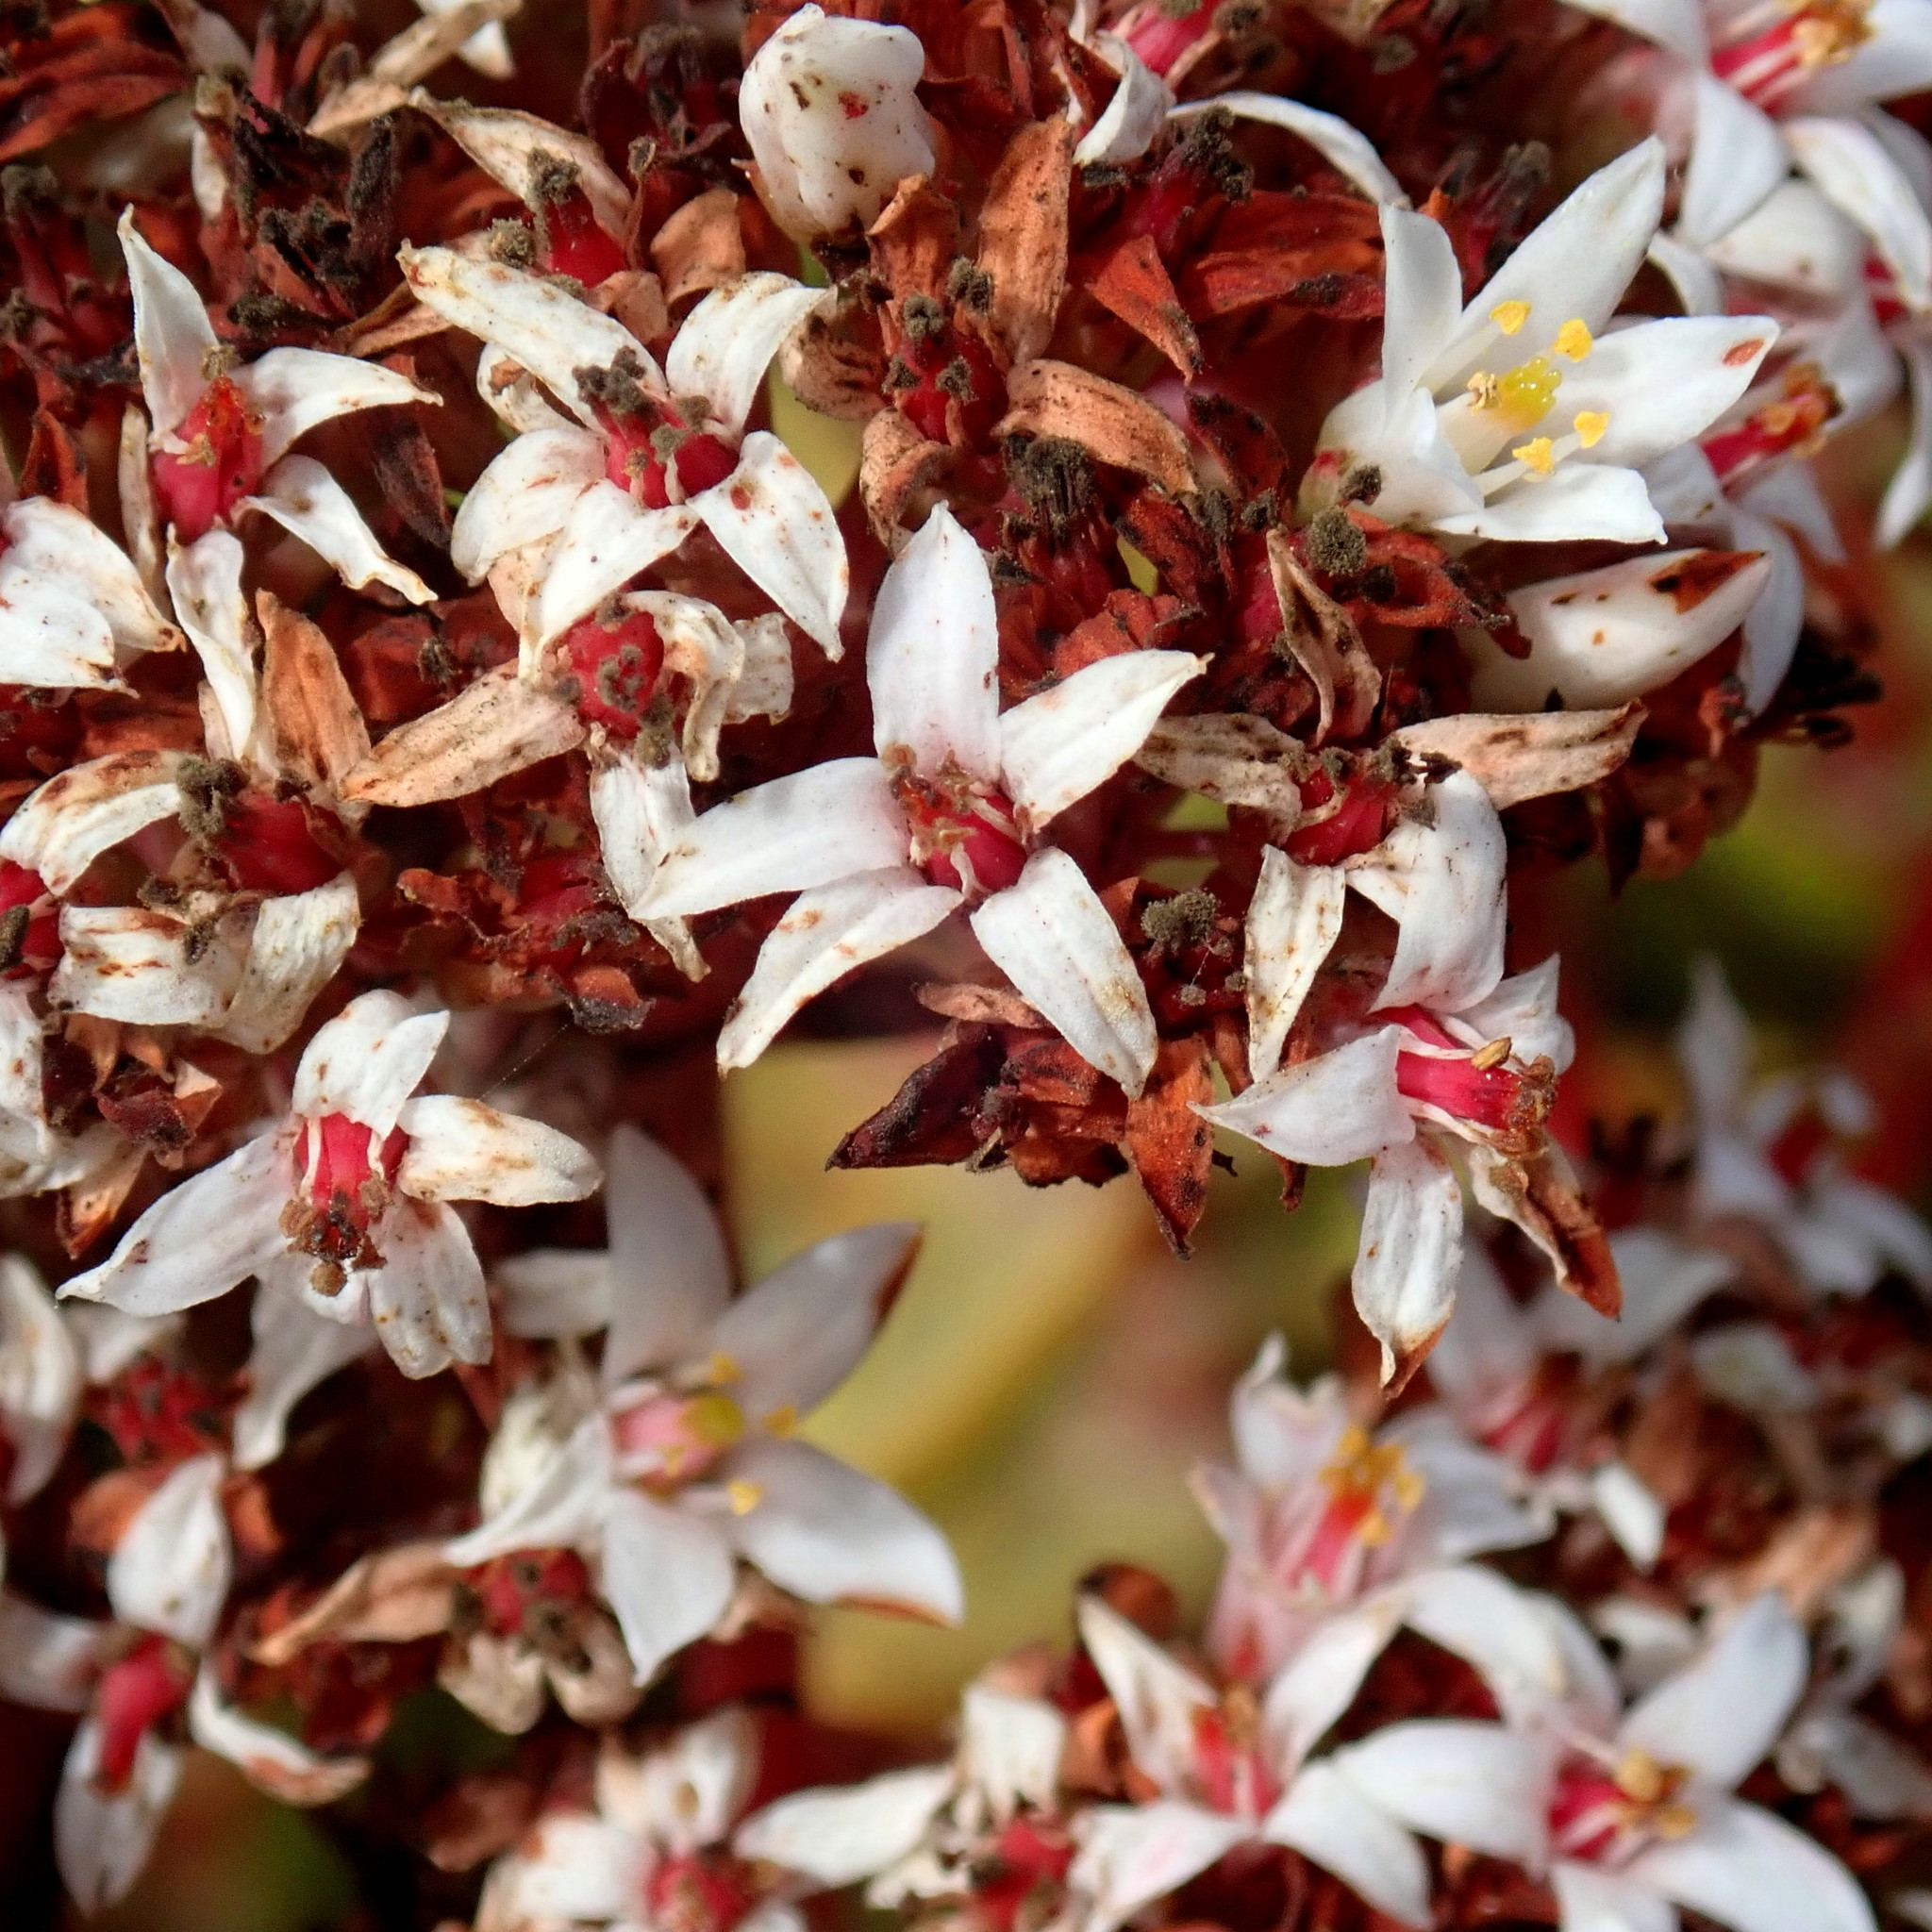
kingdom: Plantae
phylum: Tracheophyta
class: Magnoliopsida
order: Saxifragales
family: Crassulaceae
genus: Crassula
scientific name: Crassula rubricaulis
